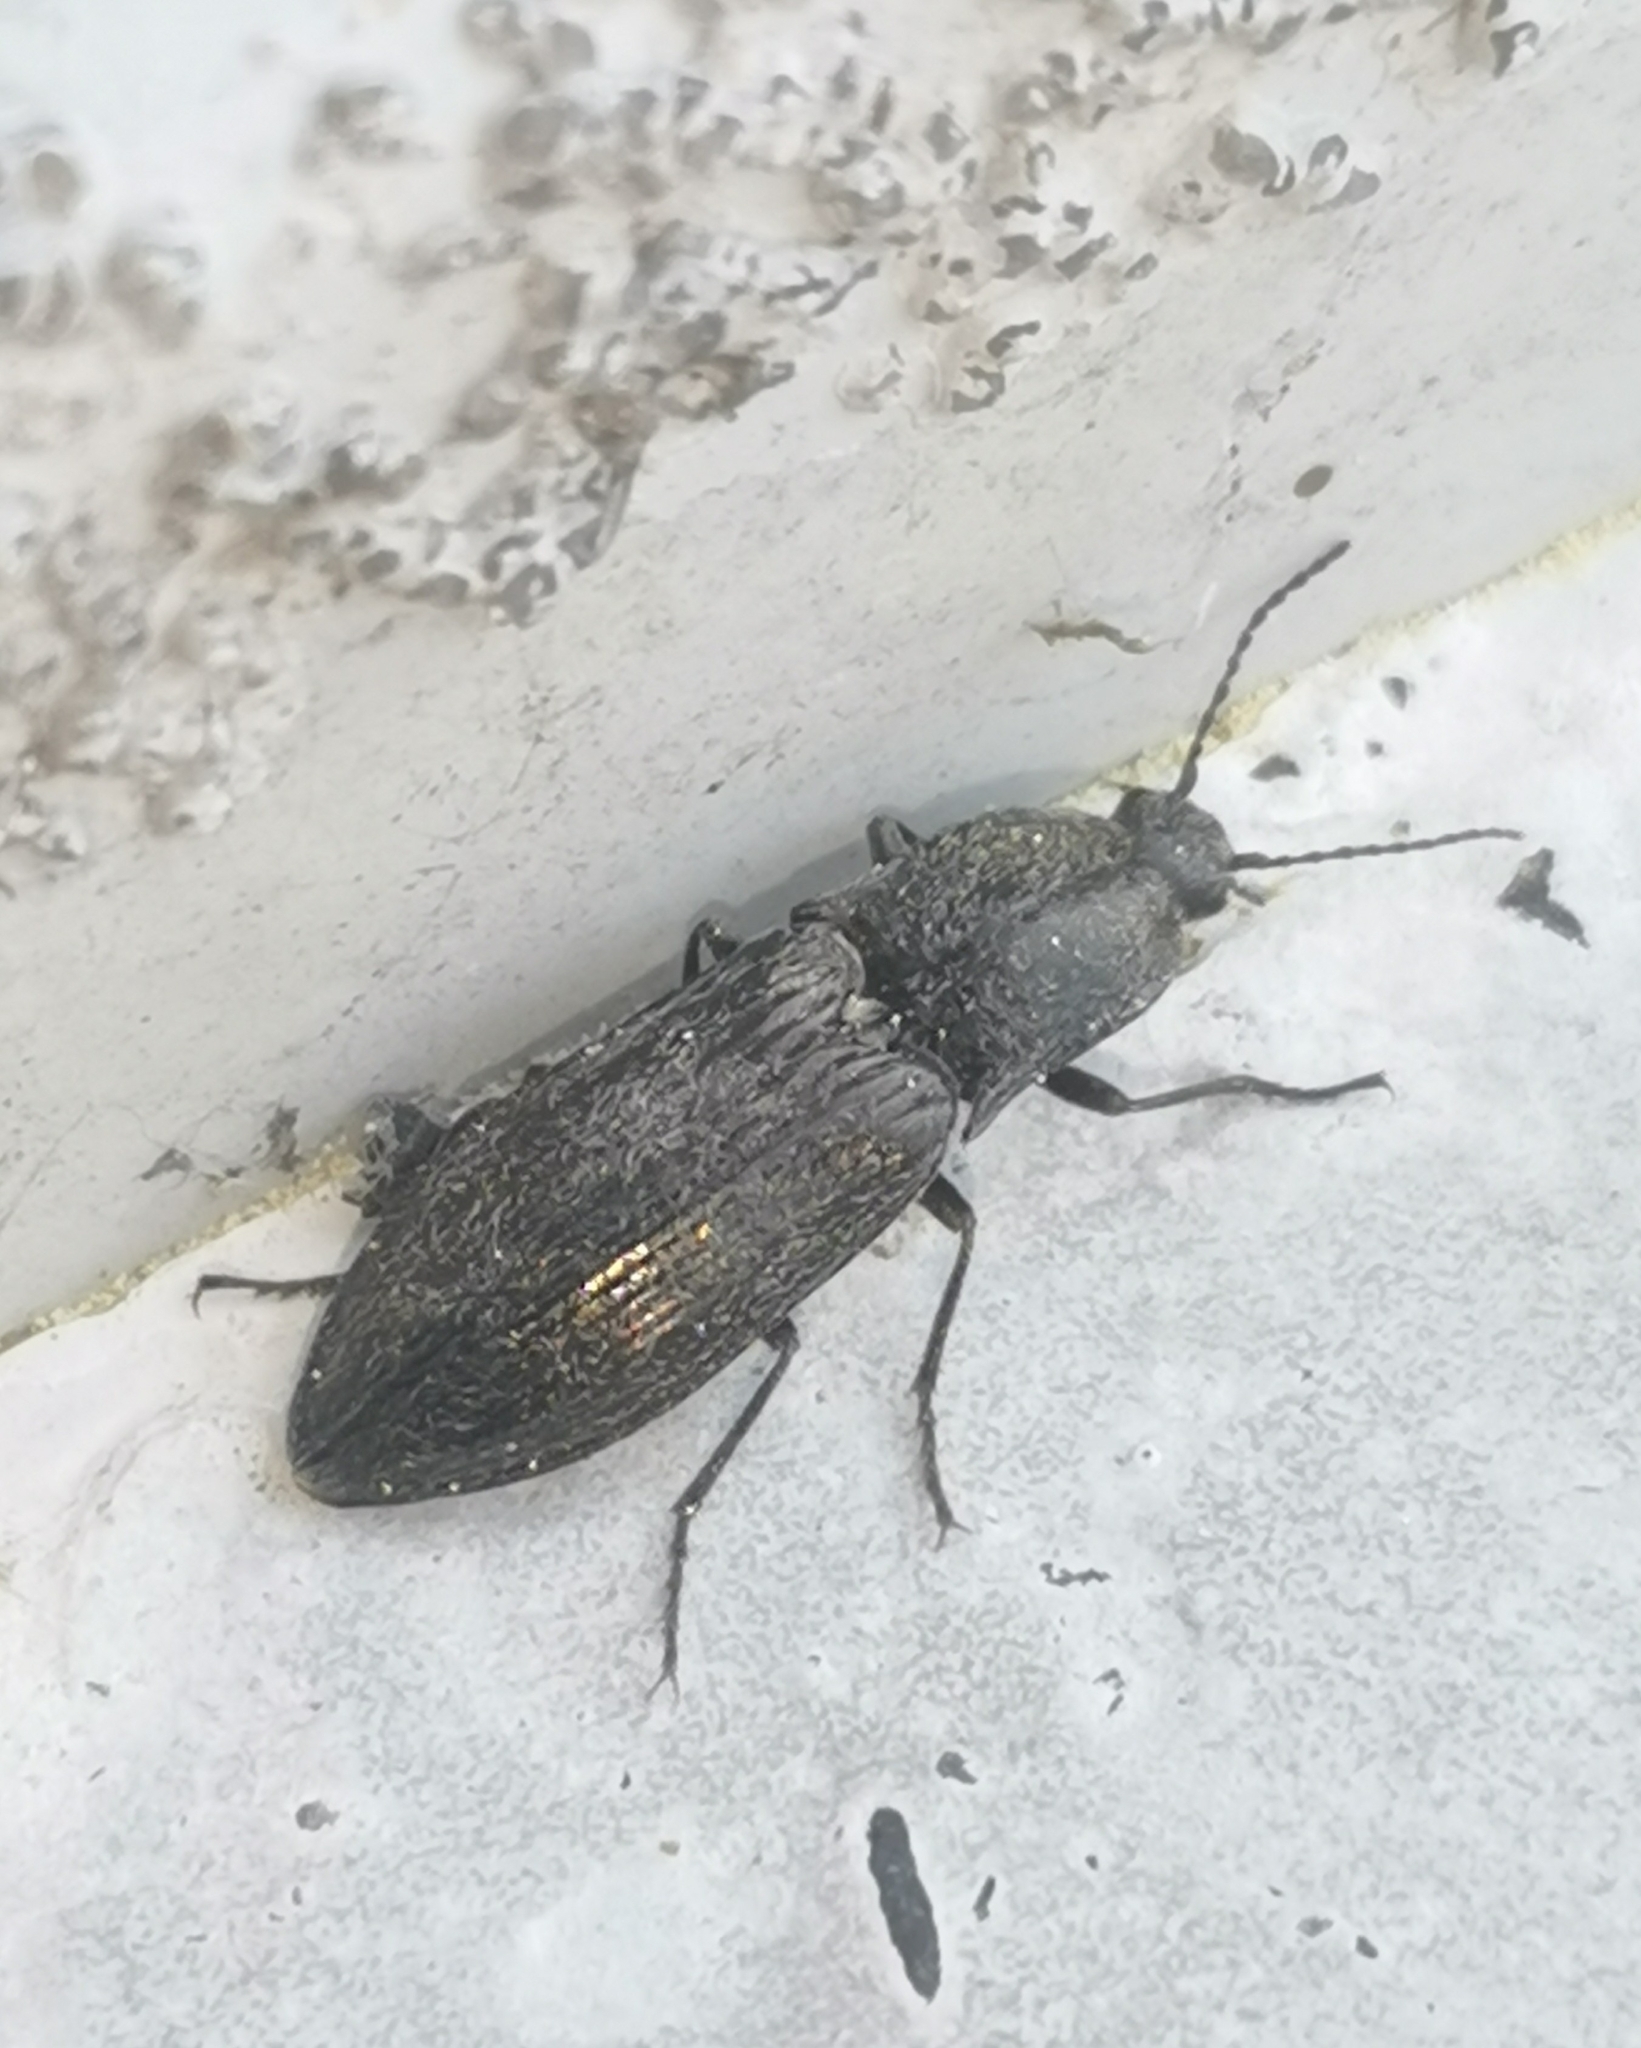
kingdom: Animalia
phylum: Arthropoda
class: Insecta
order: Coleoptera
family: Elateridae
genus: Paraphotistus
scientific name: Paraphotistus impressus
